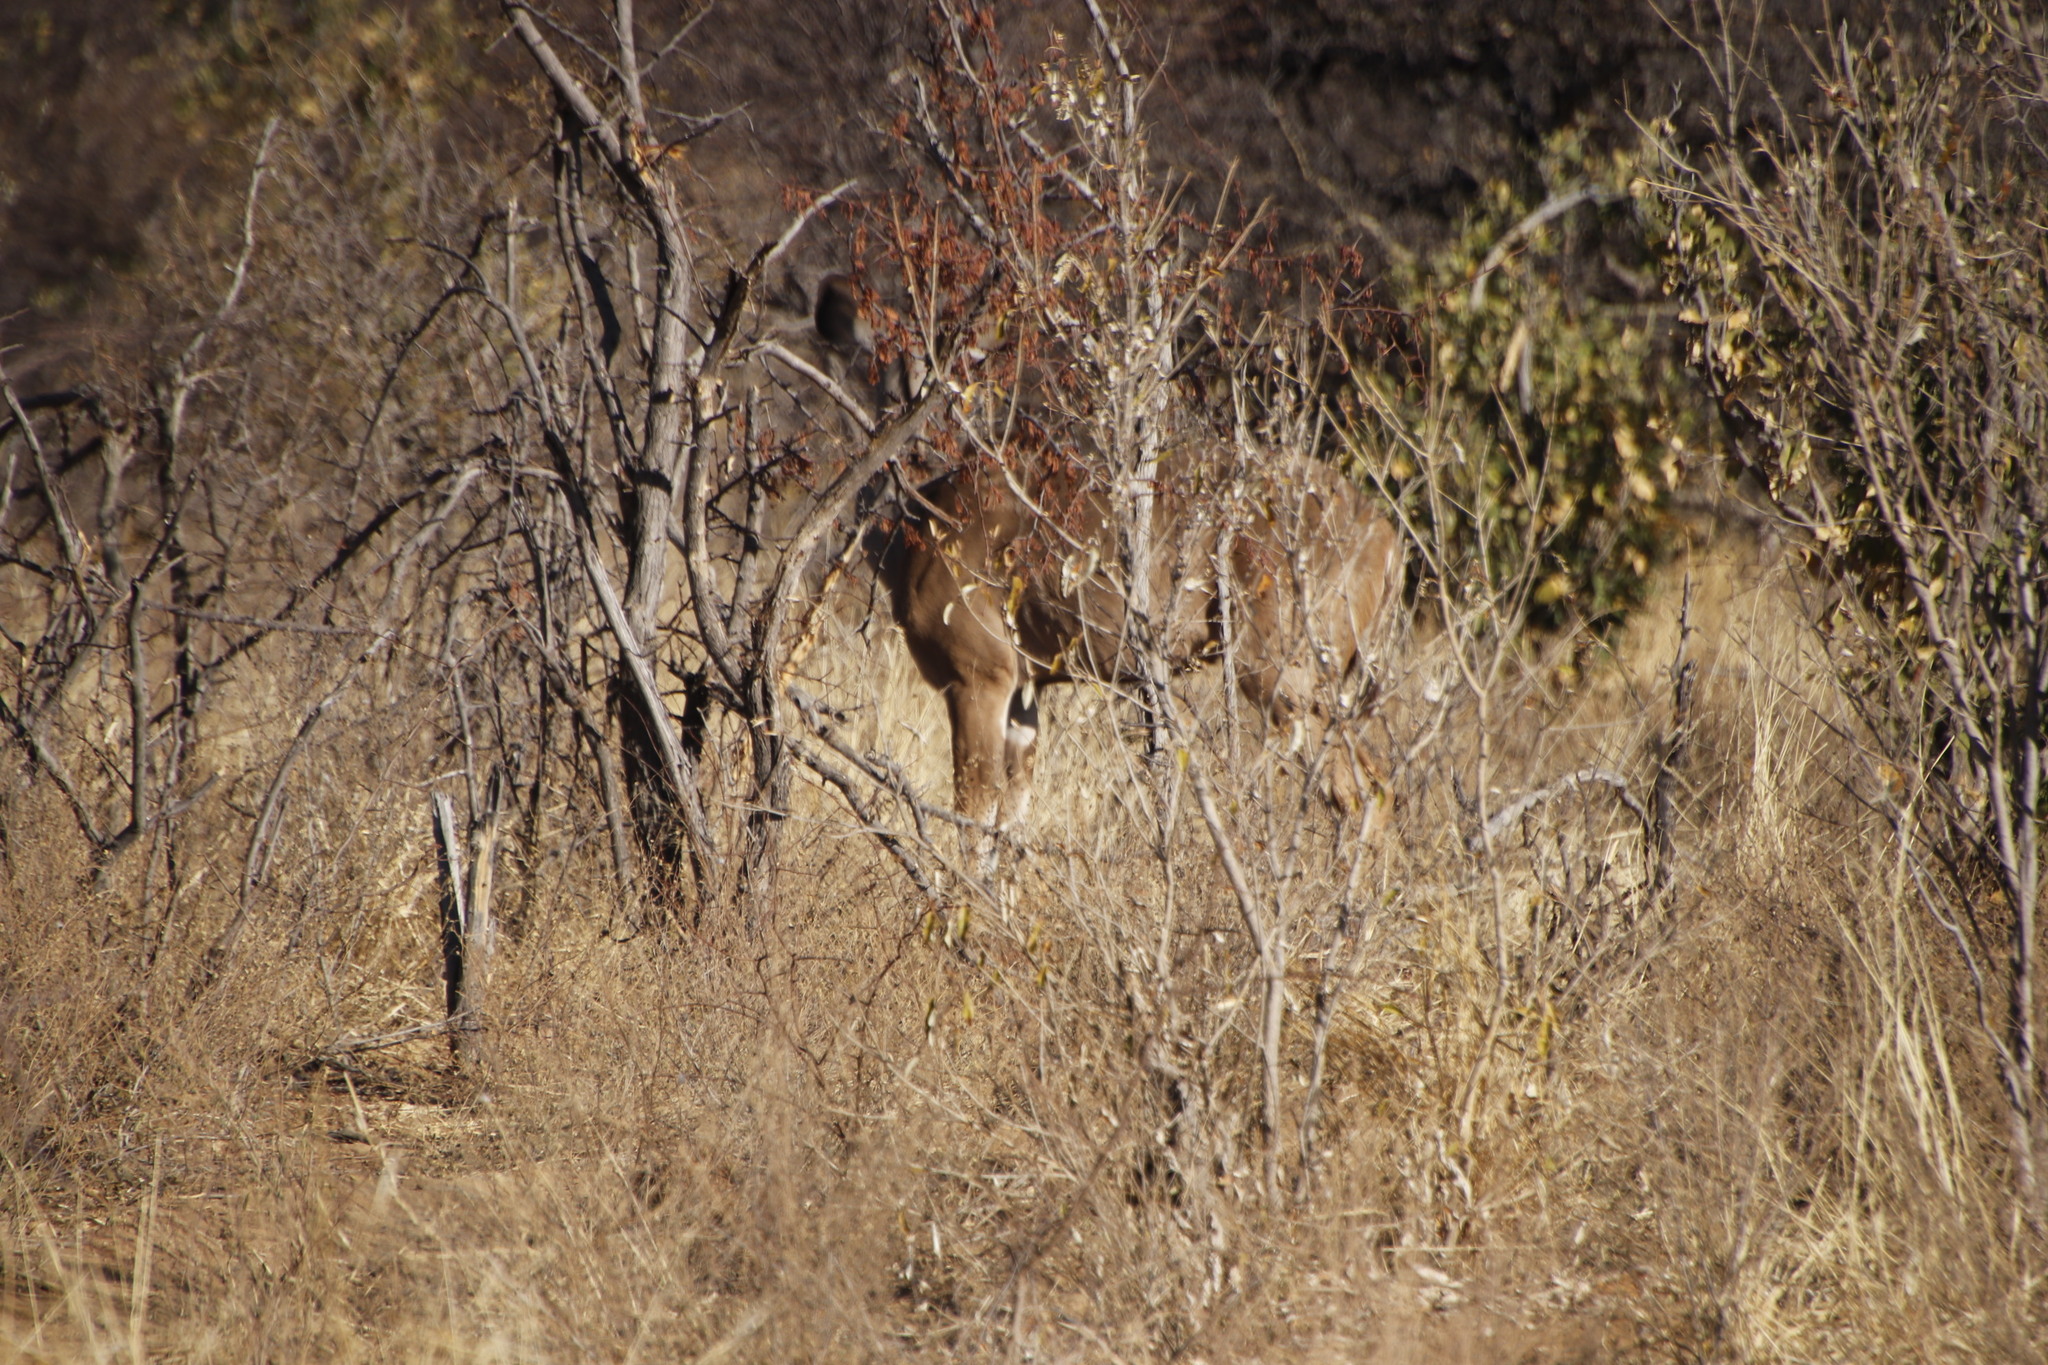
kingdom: Animalia
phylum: Chordata
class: Mammalia
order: Artiodactyla
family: Bovidae
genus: Tragelaphus
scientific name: Tragelaphus strepsiceros
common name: Greater kudu
